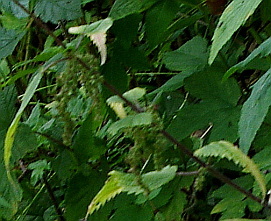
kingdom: Plantae
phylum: Tracheophyta
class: Magnoliopsida
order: Rosales
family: Urticaceae
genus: Urtica
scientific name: Urtica dioica
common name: Common nettle
